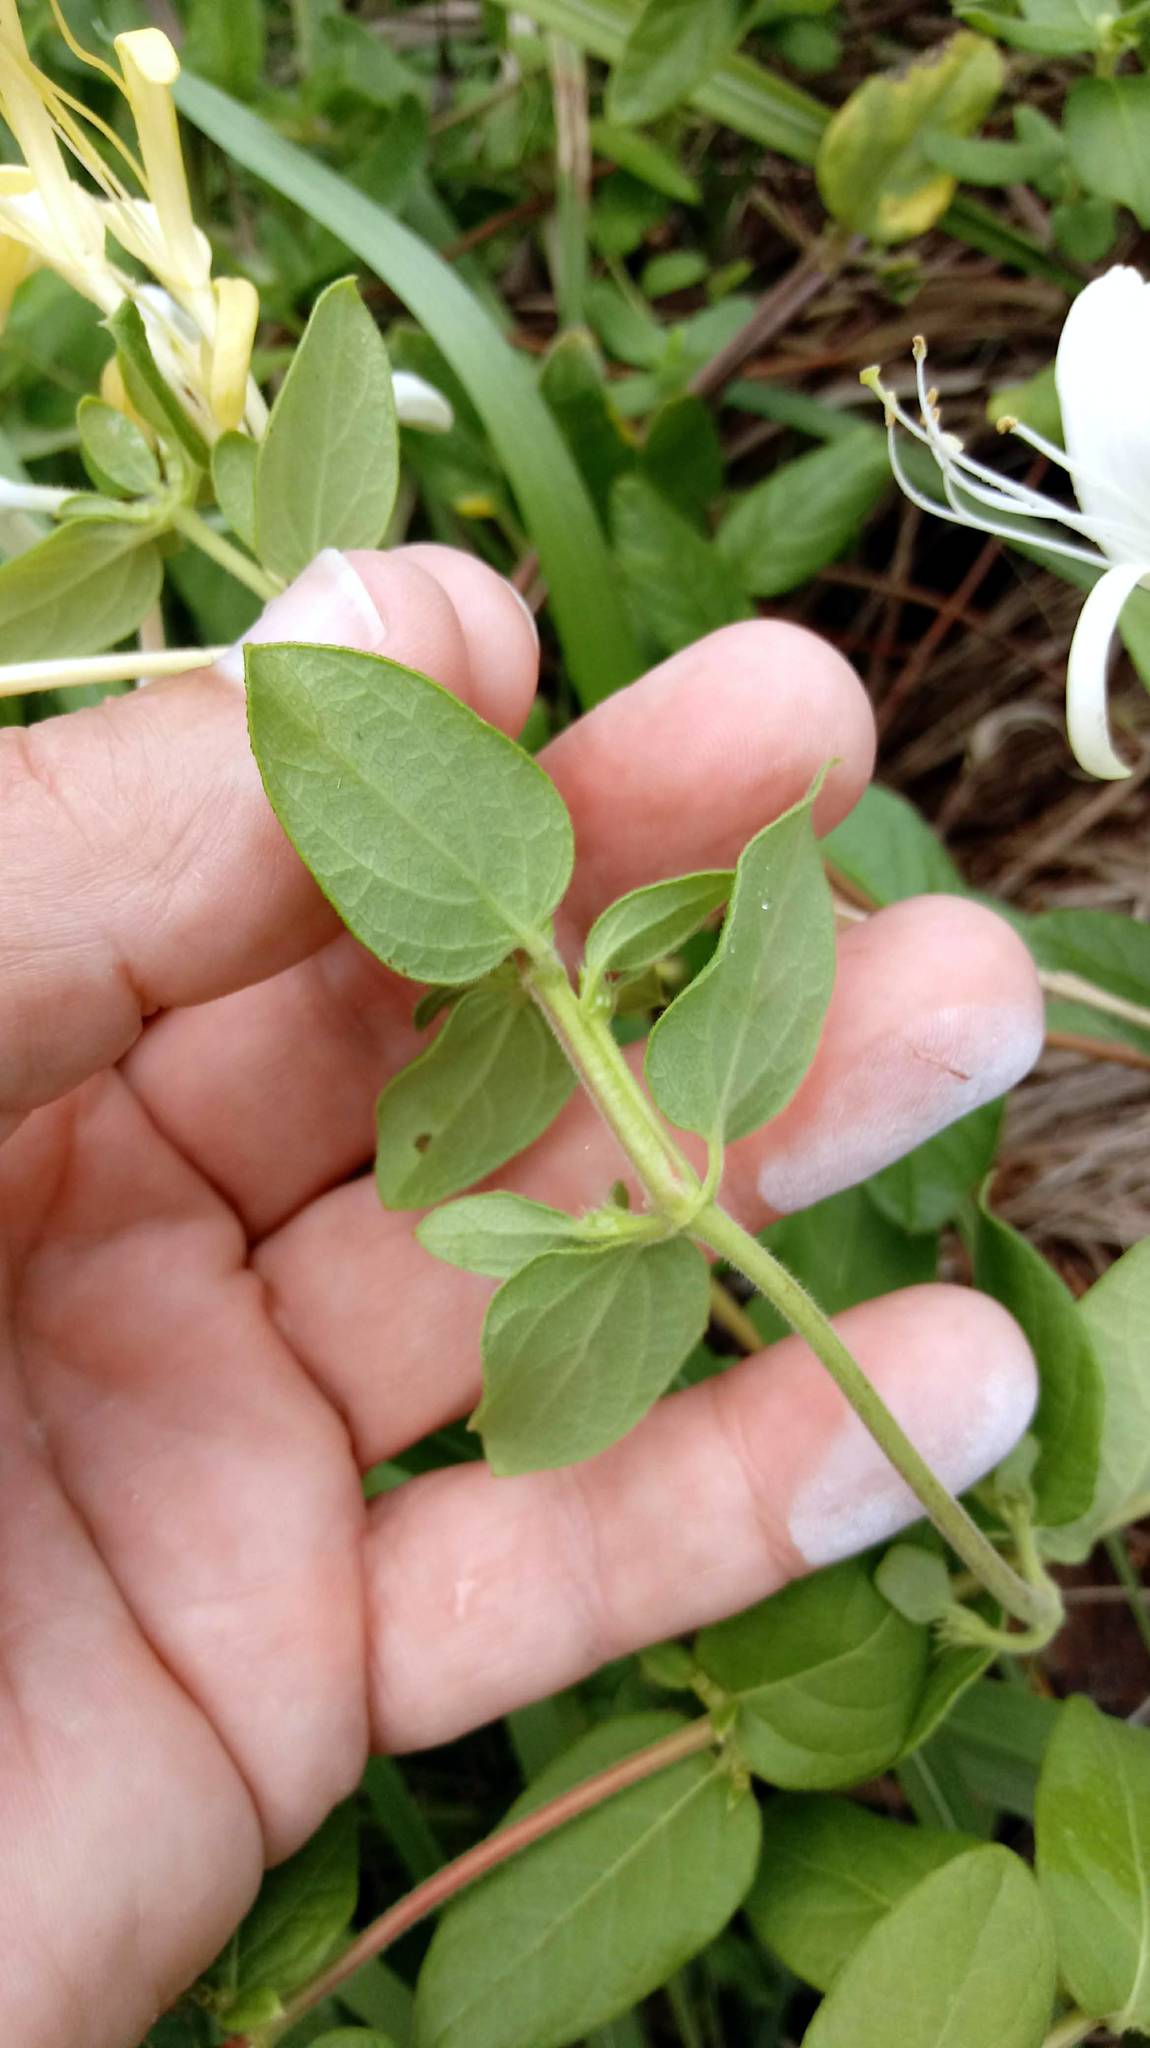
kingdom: Plantae
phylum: Tracheophyta
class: Magnoliopsida
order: Dipsacales
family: Caprifoliaceae
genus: Lonicera
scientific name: Lonicera japonica
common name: Japanese honeysuckle
